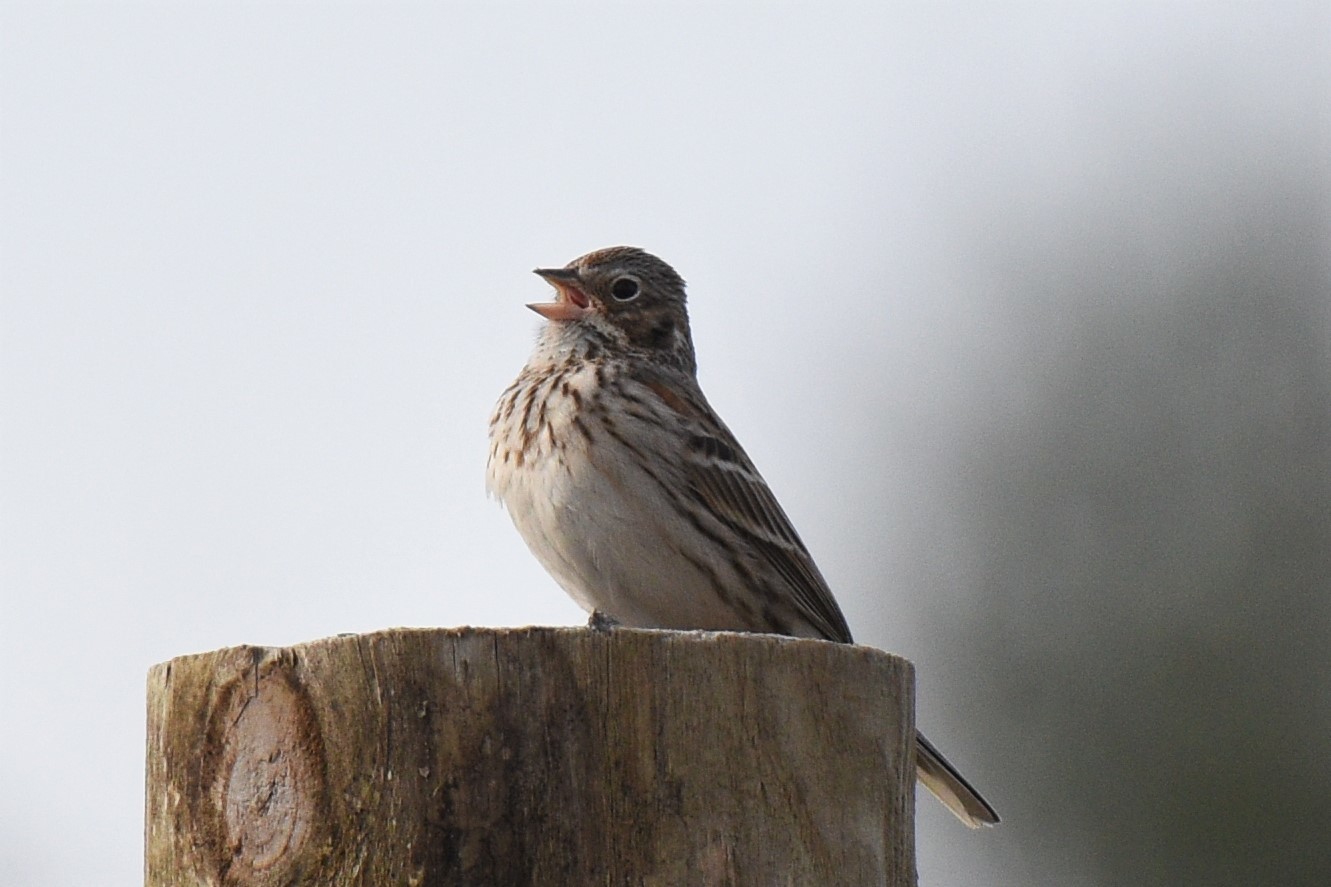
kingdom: Animalia
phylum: Chordata
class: Aves
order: Passeriformes
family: Passerellidae
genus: Pooecetes
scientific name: Pooecetes gramineus
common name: Vesper sparrow
